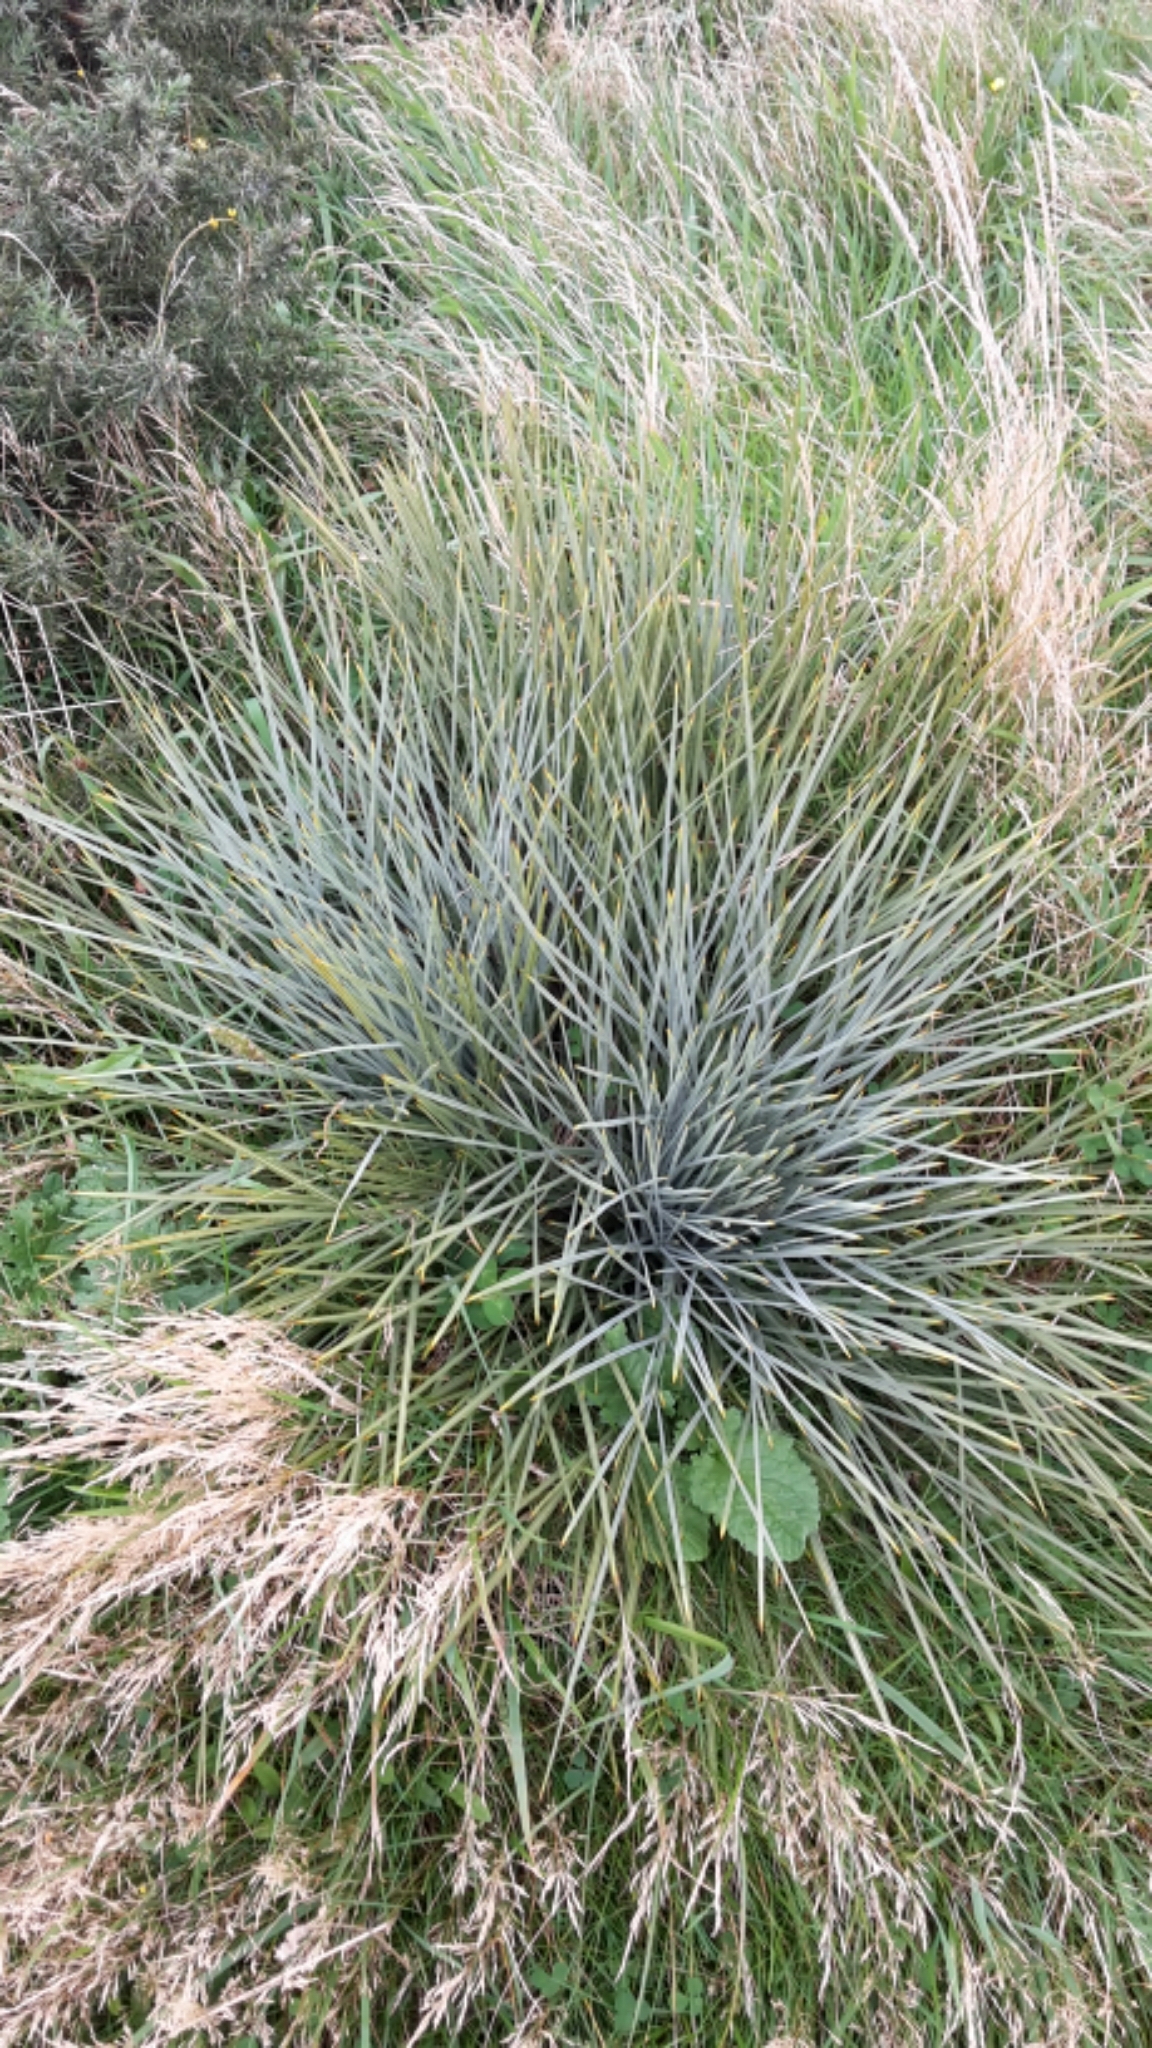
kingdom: Plantae
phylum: Tracheophyta
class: Magnoliopsida
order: Apiales
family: Apiaceae
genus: Aciphylla
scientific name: Aciphylla squarrosa
